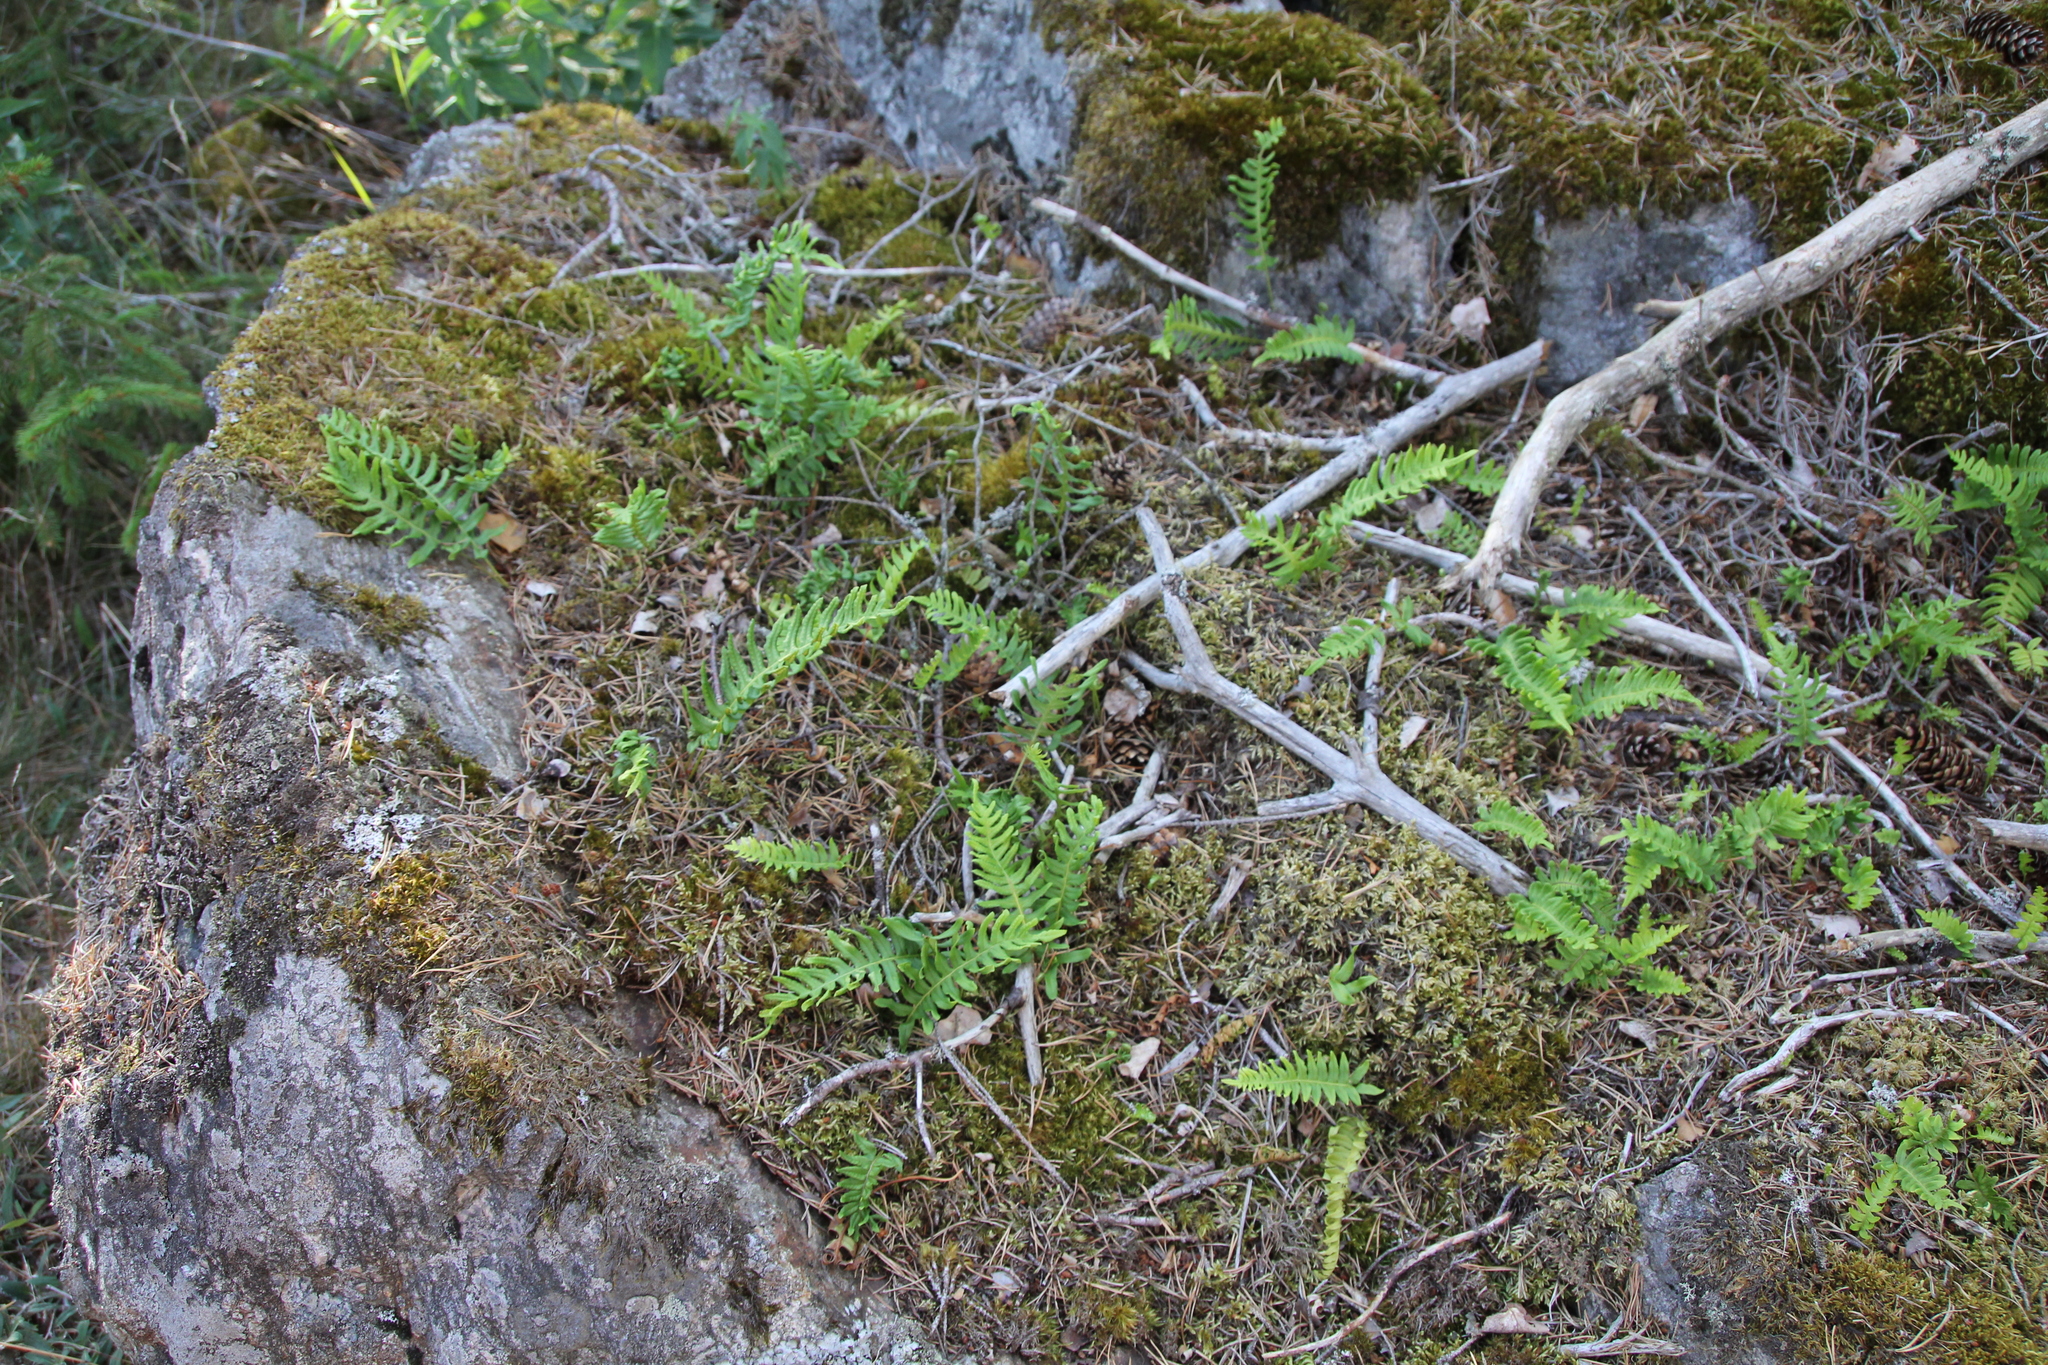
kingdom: Plantae
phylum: Tracheophyta
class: Polypodiopsida
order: Polypodiales
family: Polypodiaceae
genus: Polypodium
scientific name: Polypodium vulgare
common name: Common polypody
